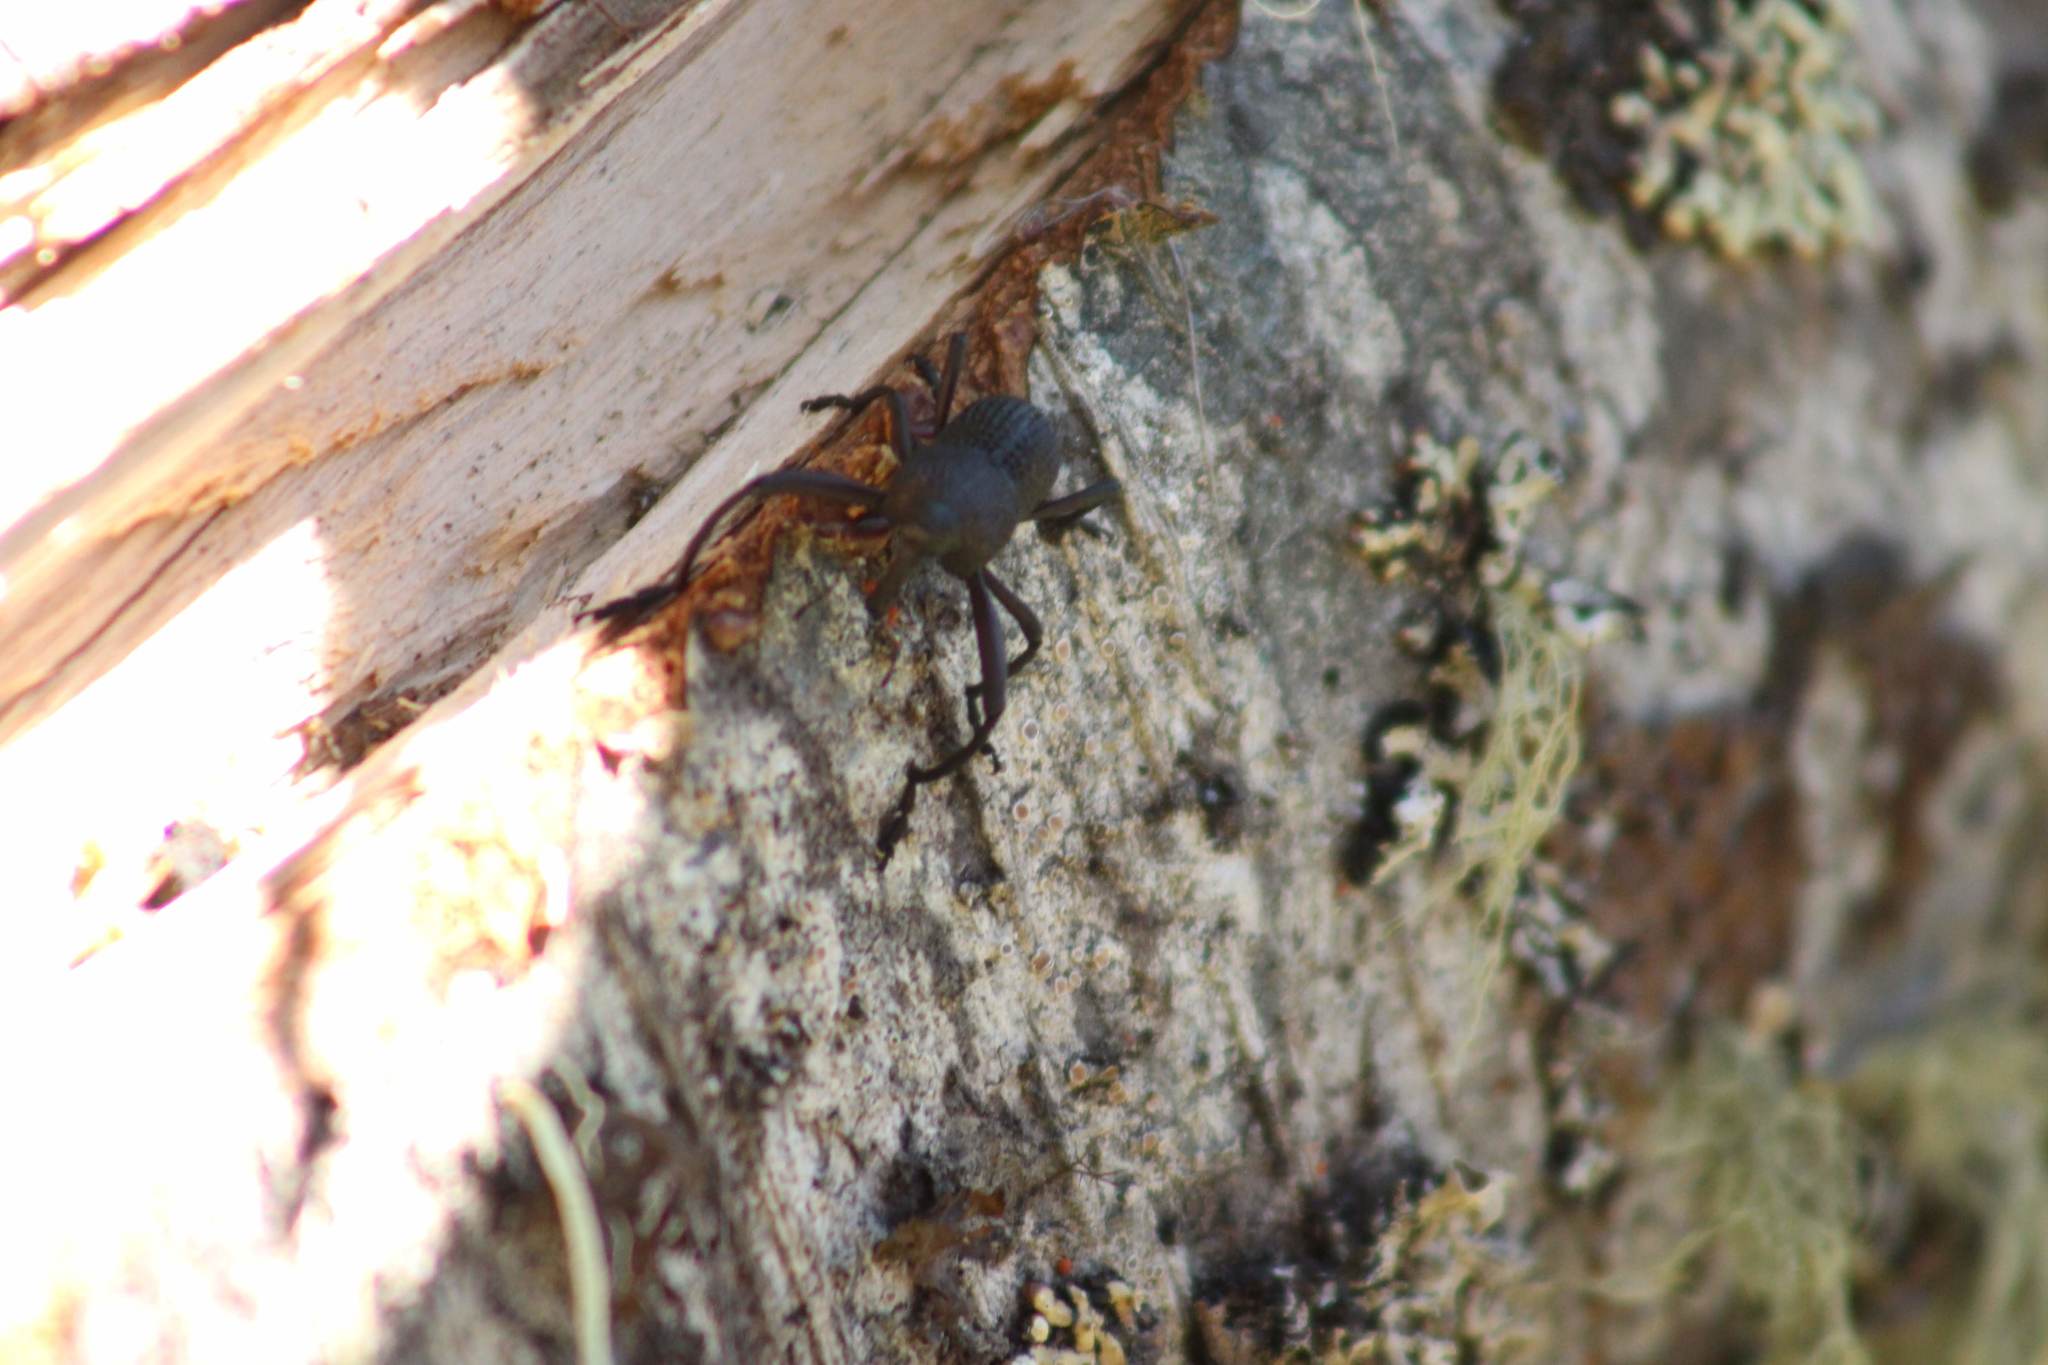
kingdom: Animalia
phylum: Arthropoda
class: Insecta
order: Coleoptera
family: Curculionidae
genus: Rhyephenes
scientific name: Rhyephenes maillei
